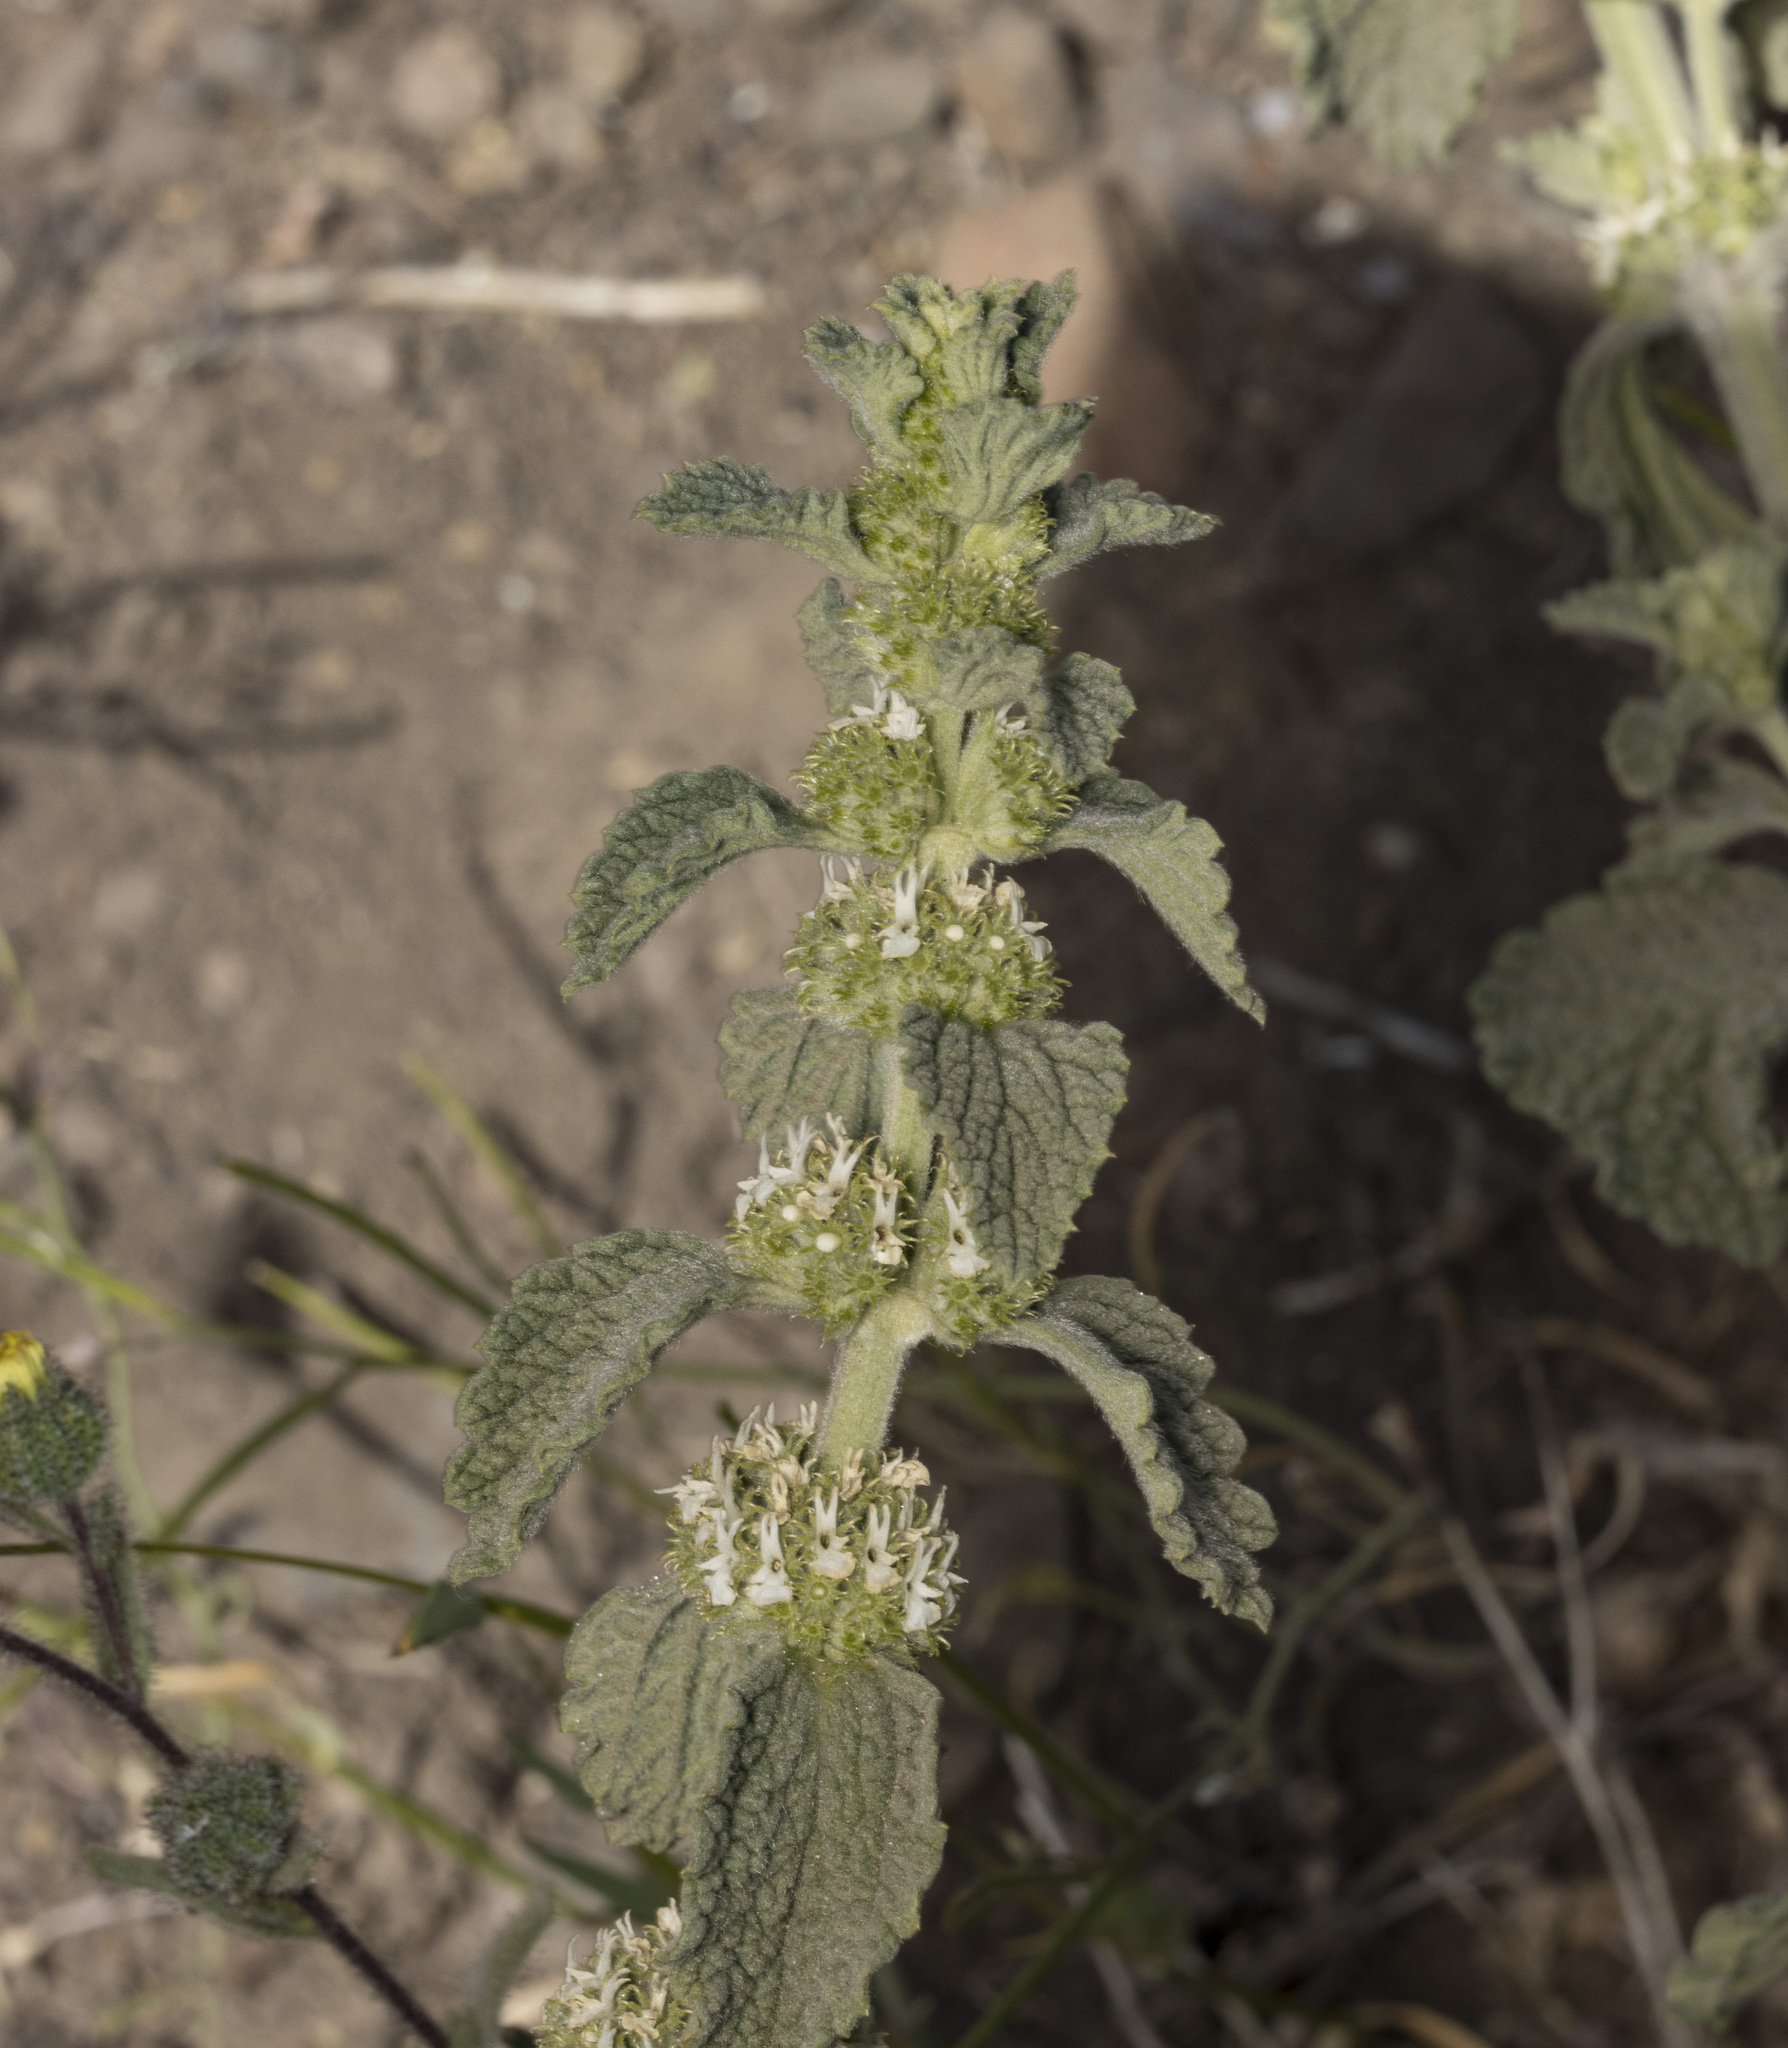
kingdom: Plantae
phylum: Tracheophyta
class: Magnoliopsida
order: Lamiales
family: Lamiaceae
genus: Marrubium
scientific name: Marrubium vulgare
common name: Horehound
